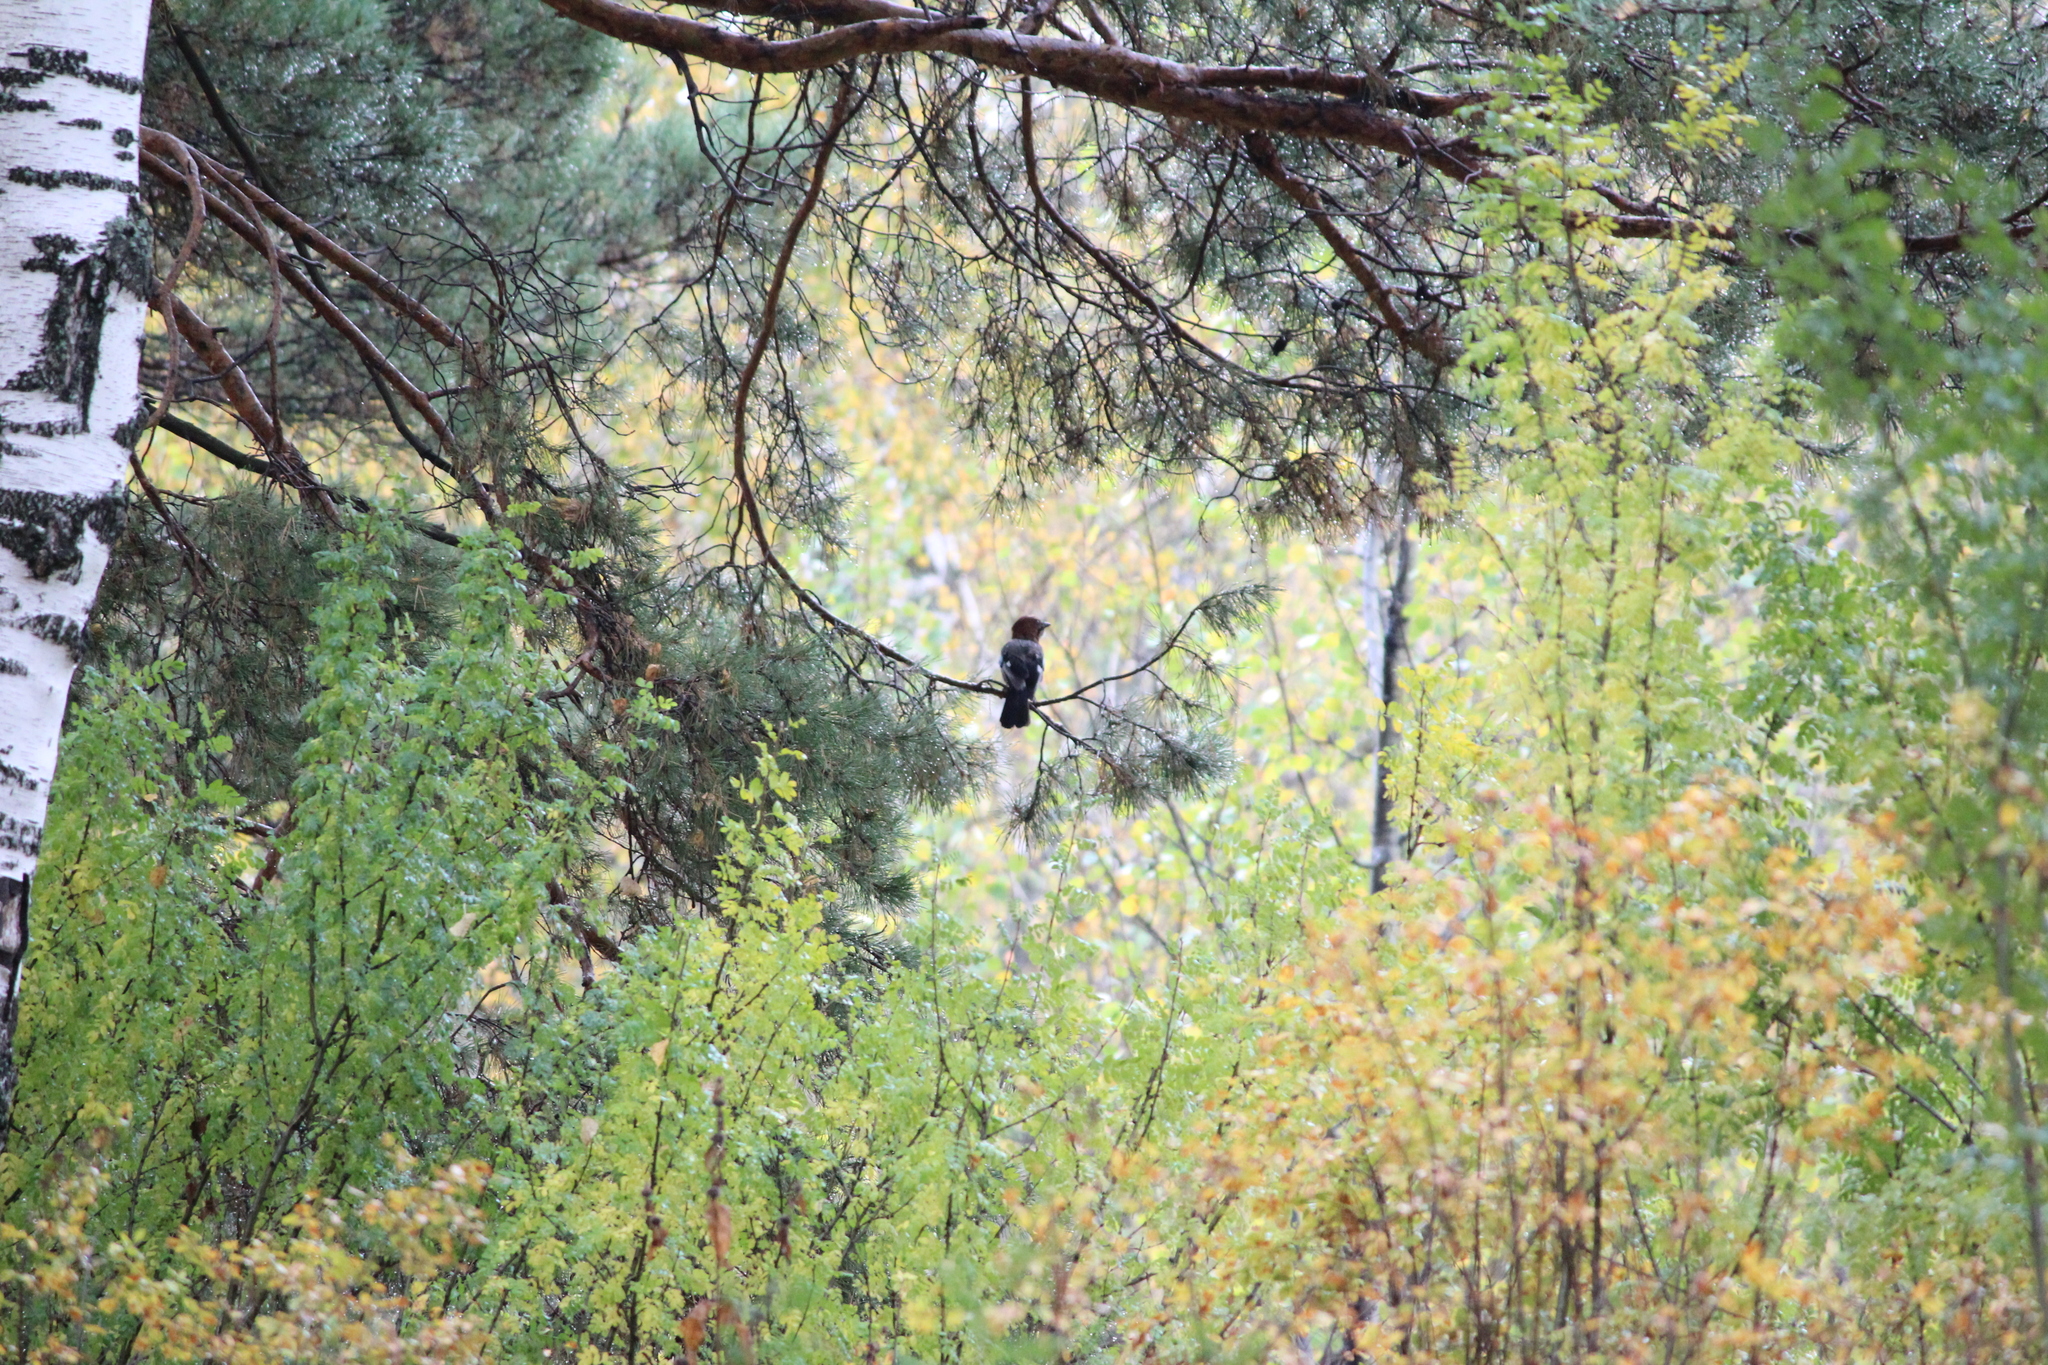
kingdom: Animalia
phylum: Chordata
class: Aves
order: Passeriformes
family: Corvidae
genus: Garrulus
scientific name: Garrulus glandarius
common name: Eurasian jay
